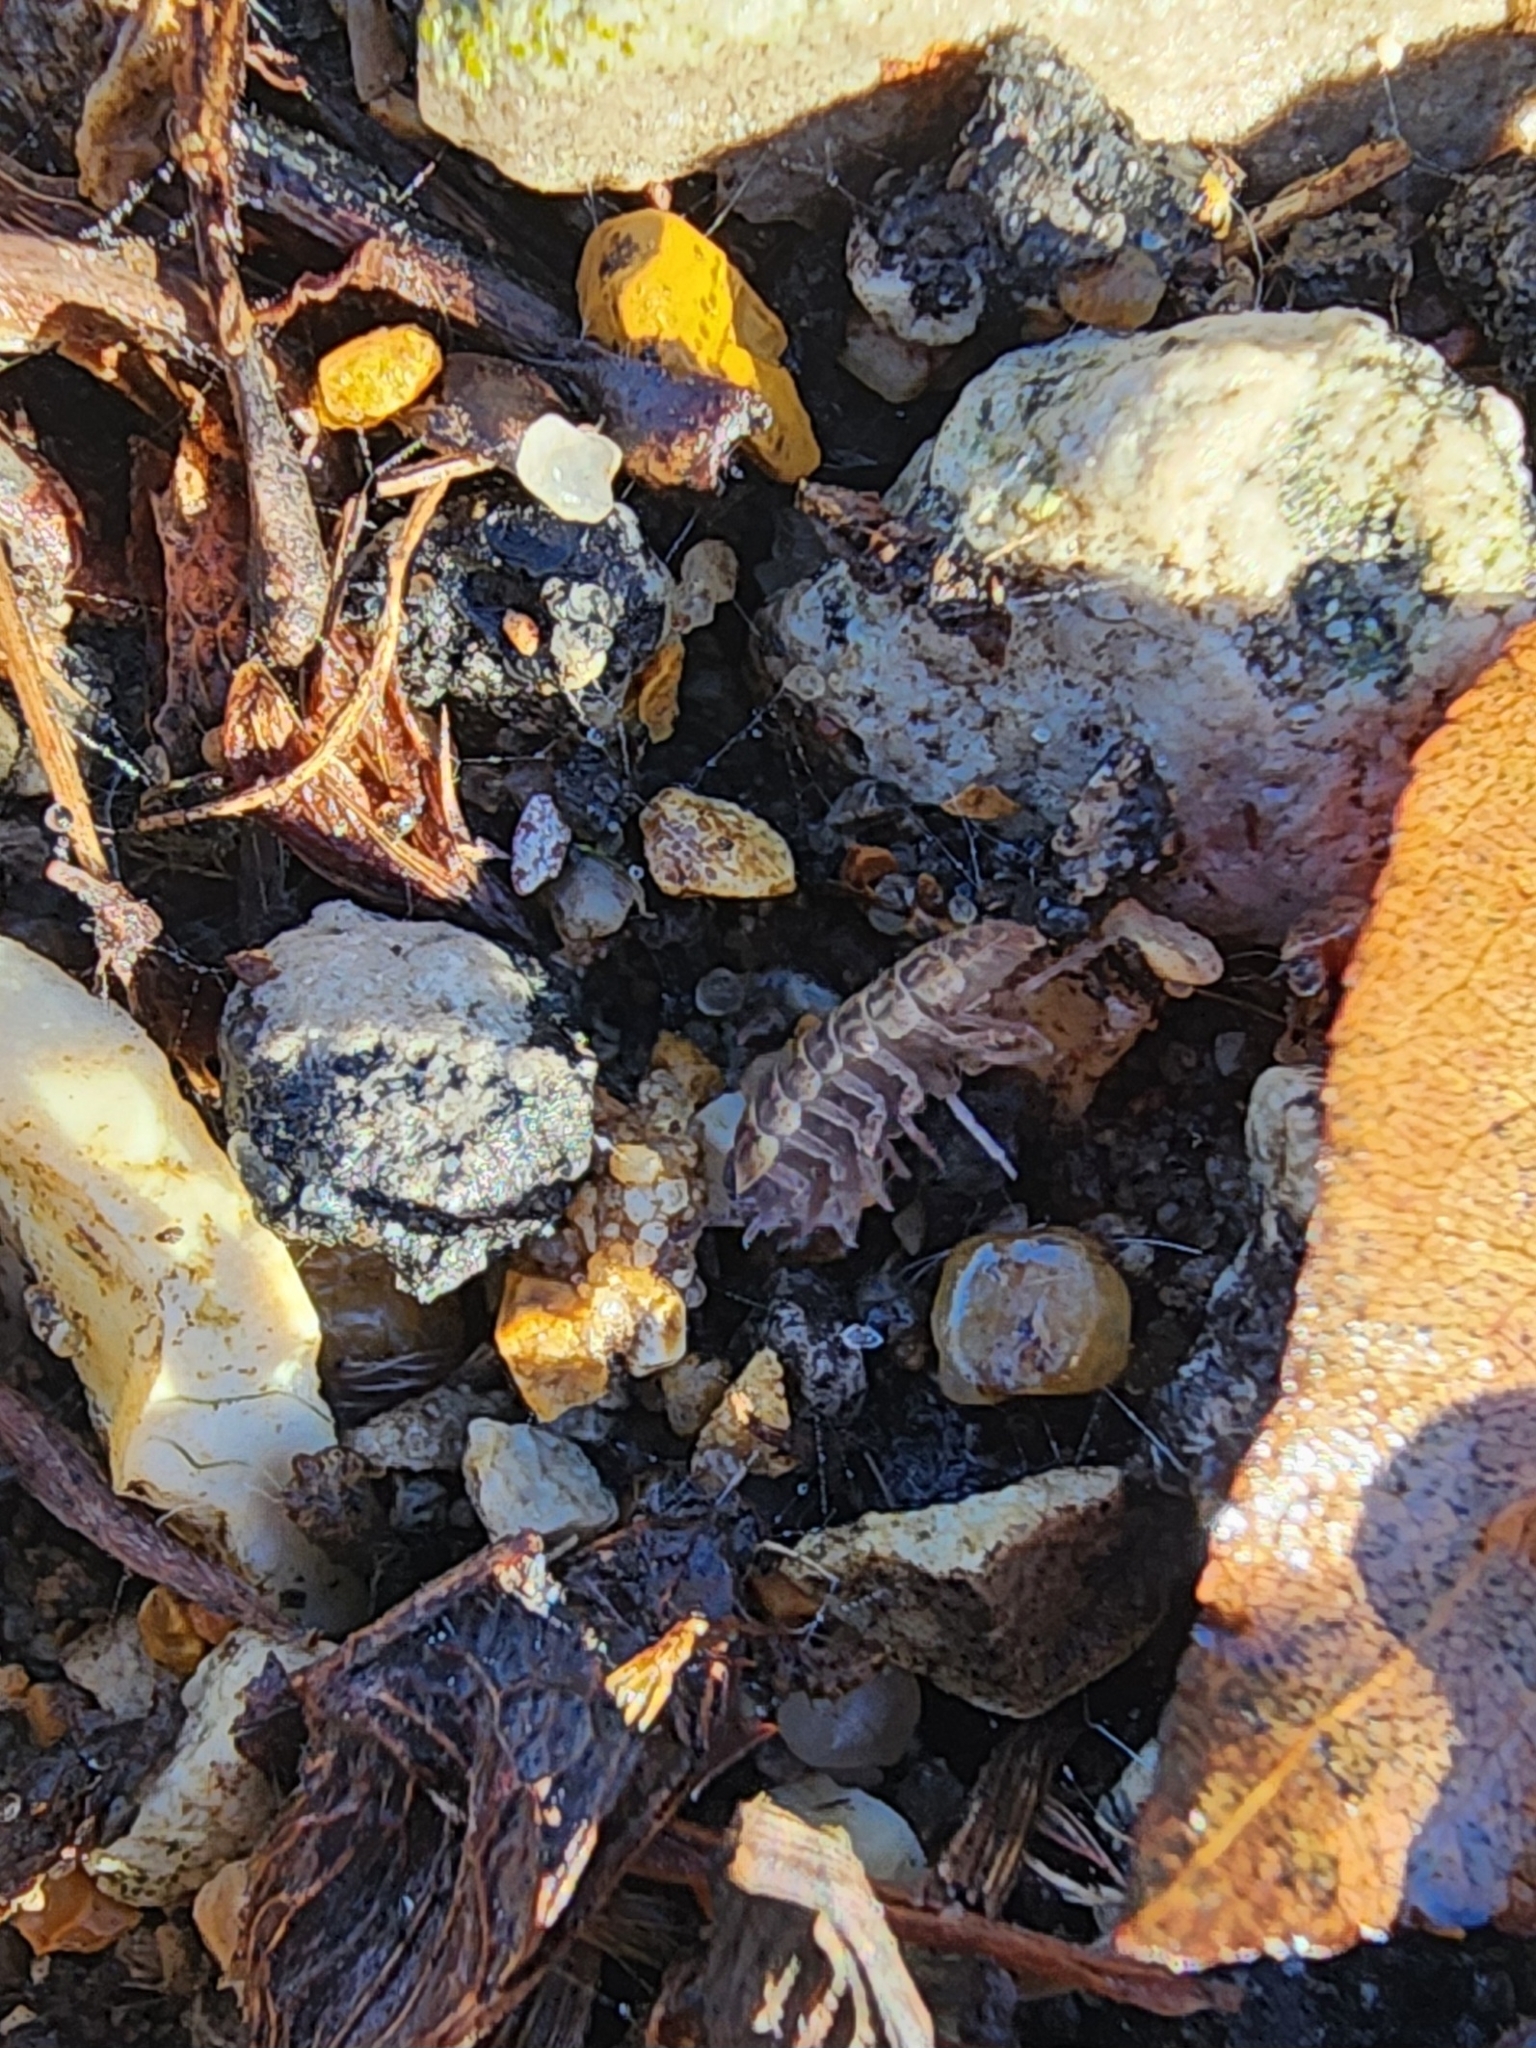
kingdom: Animalia
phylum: Arthropoda
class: Malacostraca
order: Isopoda
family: Armadillidiidae
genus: Armadillidium
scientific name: Armadillidium vulgare
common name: Common pill woodlouse
